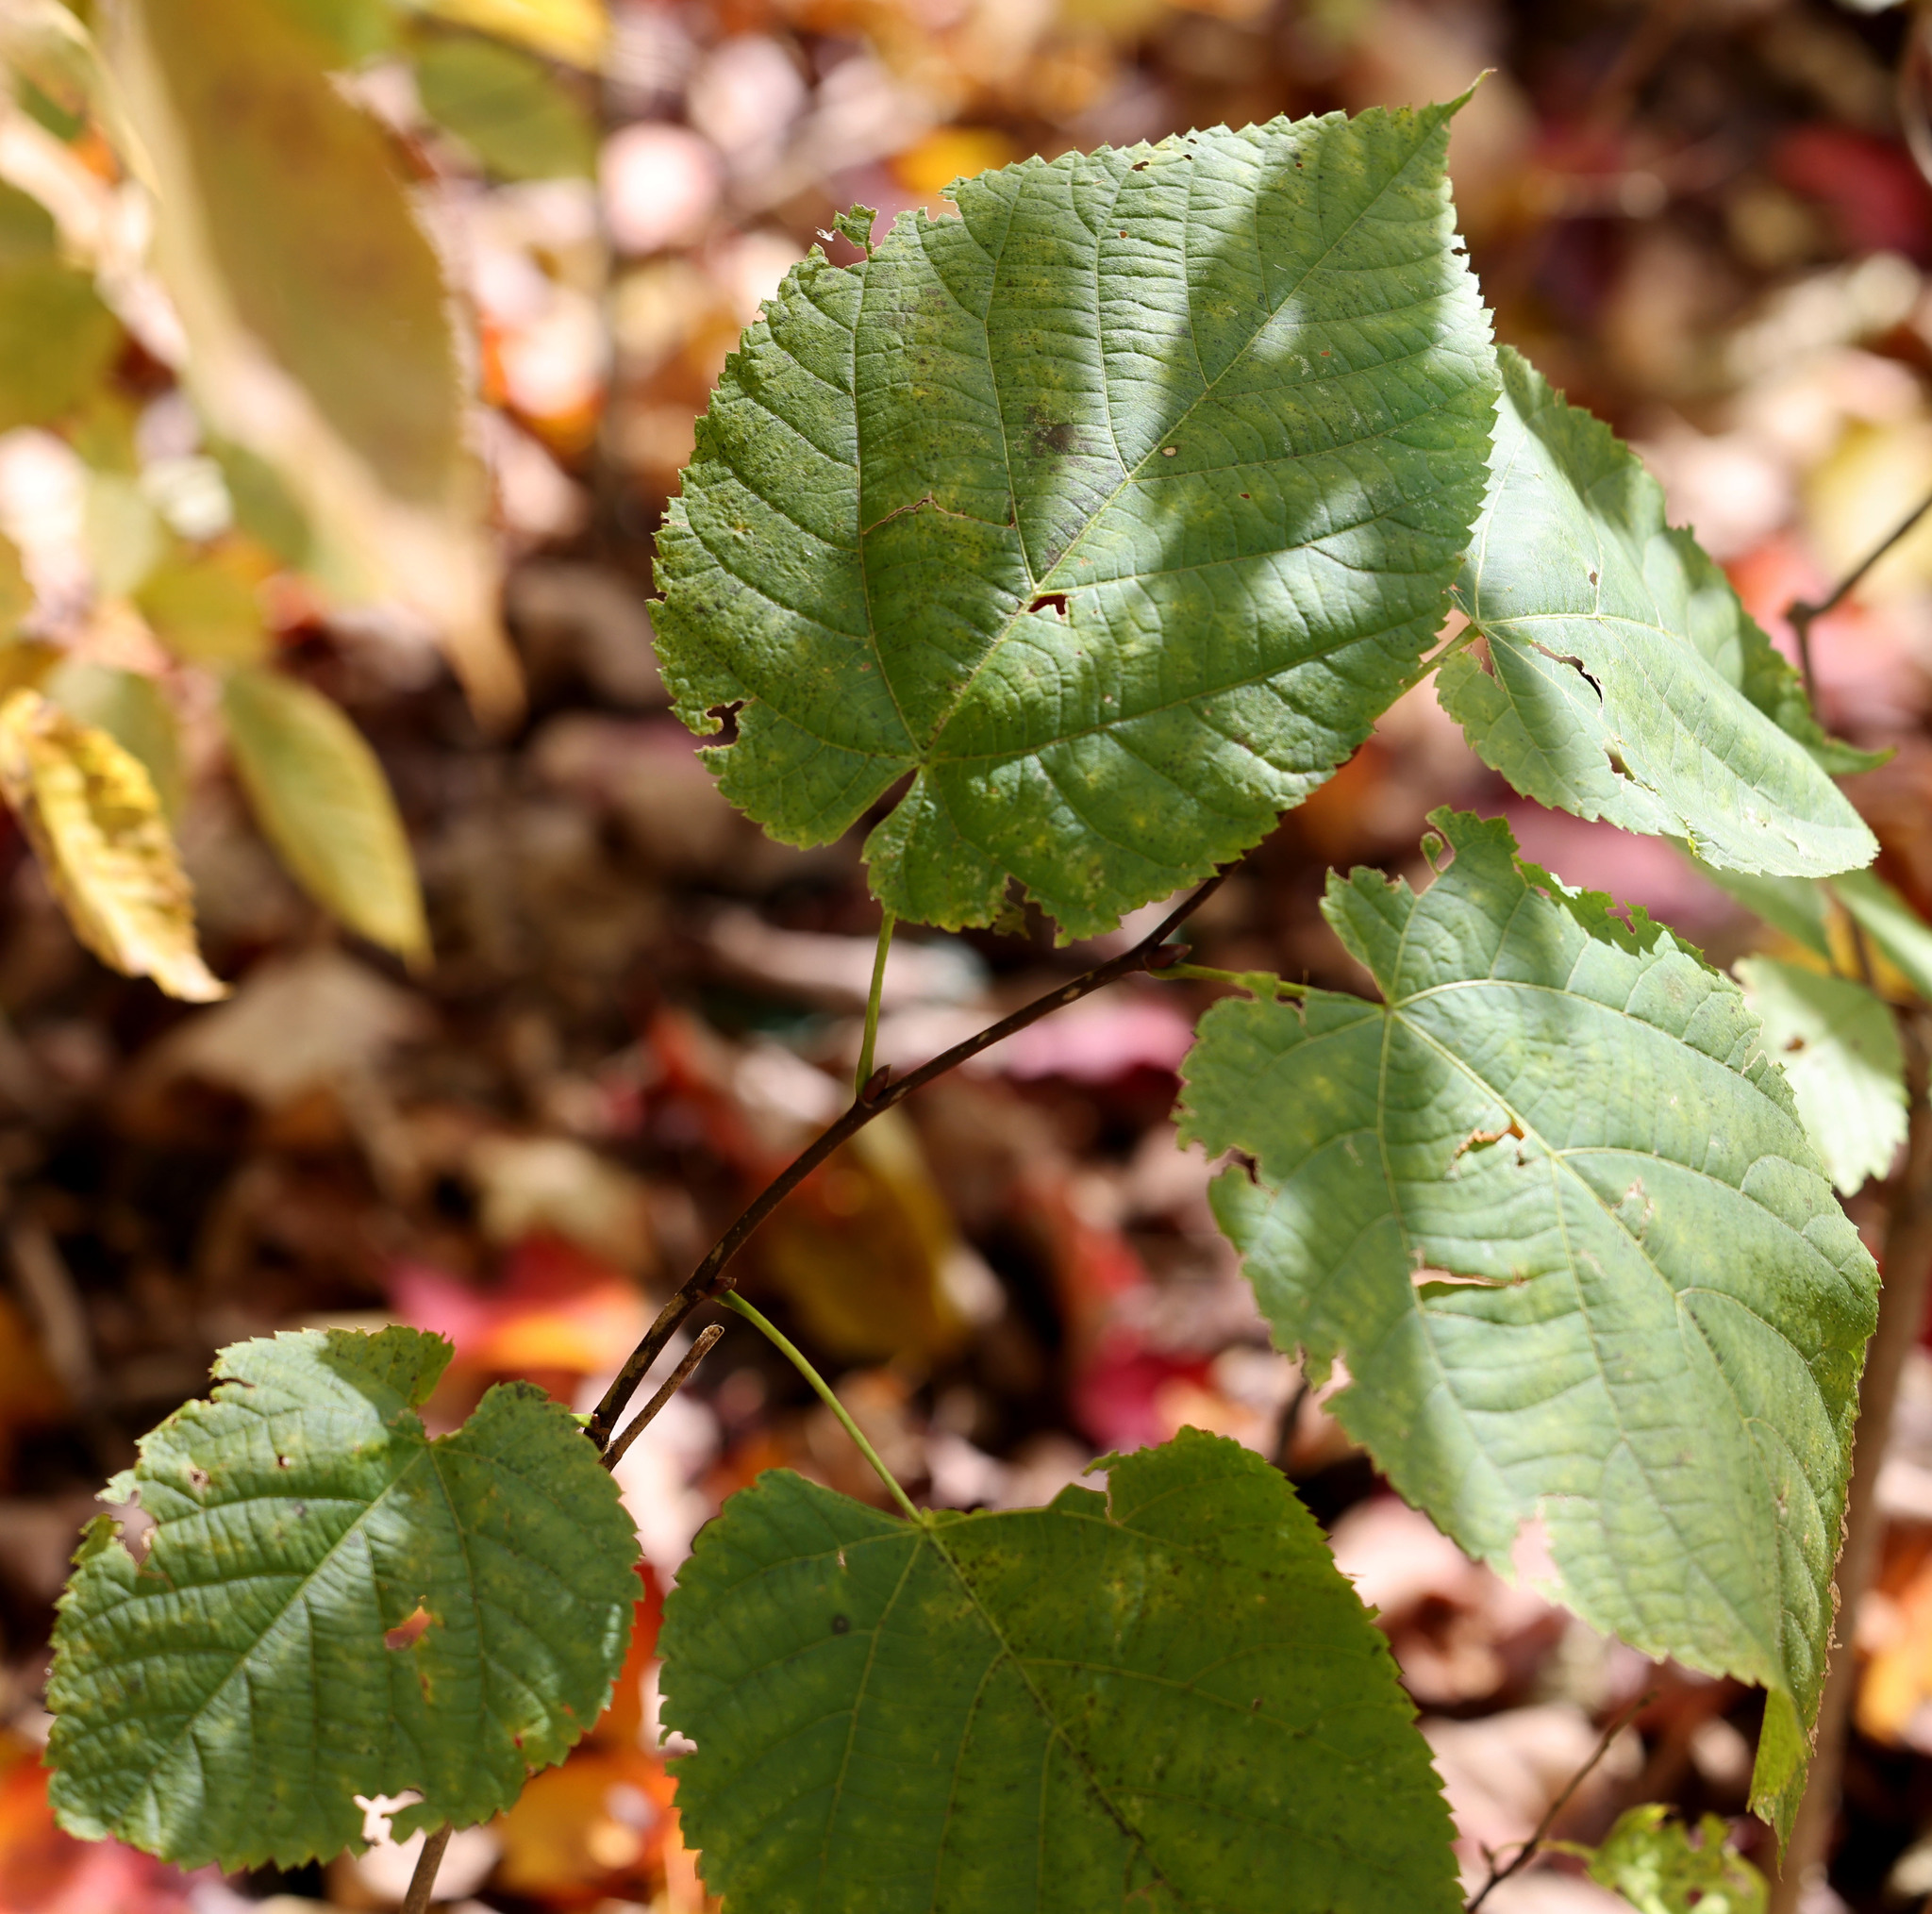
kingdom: Plantae
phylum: Tracheophyta
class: Magnoliopsida
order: Malvales
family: Malvaceae
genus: Tilia
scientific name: Tilia americana
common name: Basswood
